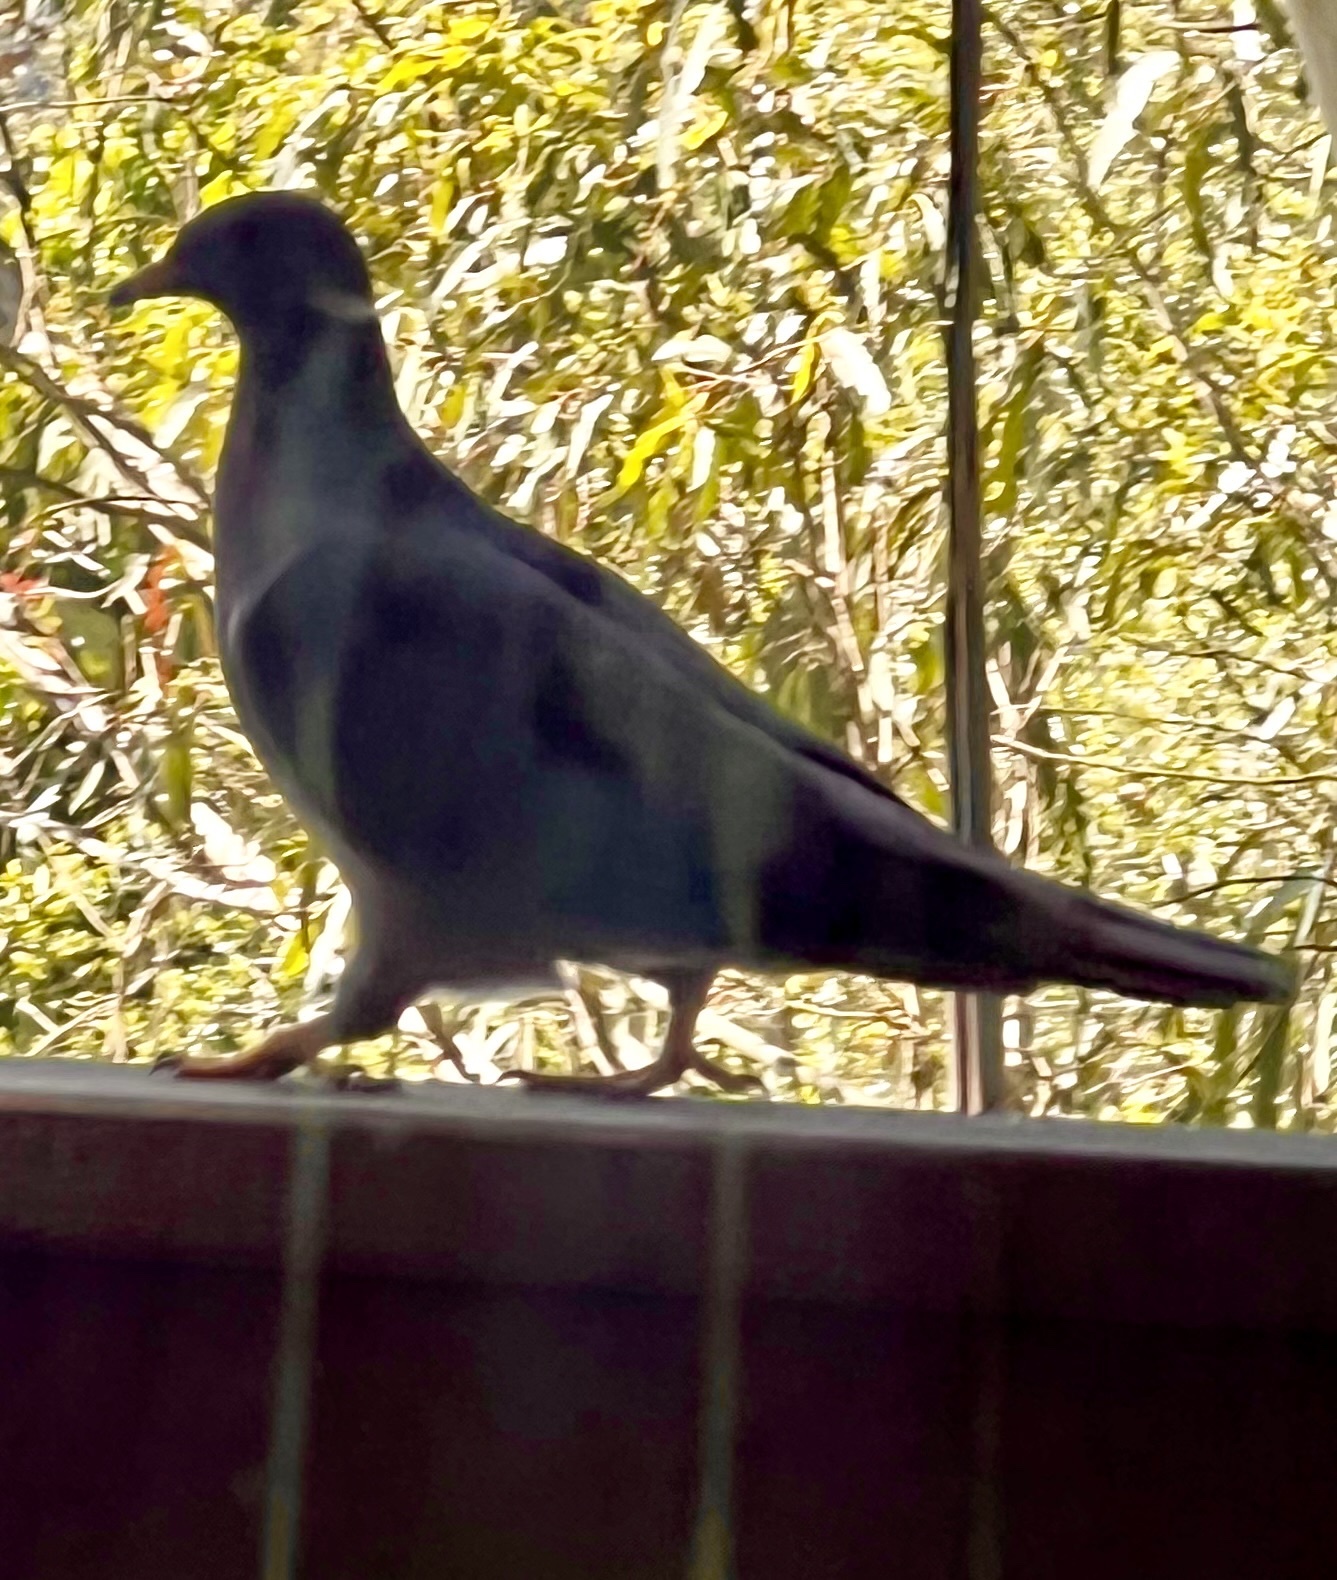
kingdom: Animalia
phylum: Chordata
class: Aves
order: Columbiformes
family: Columbidae
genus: Patagioenas
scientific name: Patagioenas fasciata
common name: Band-tailed pigeon
